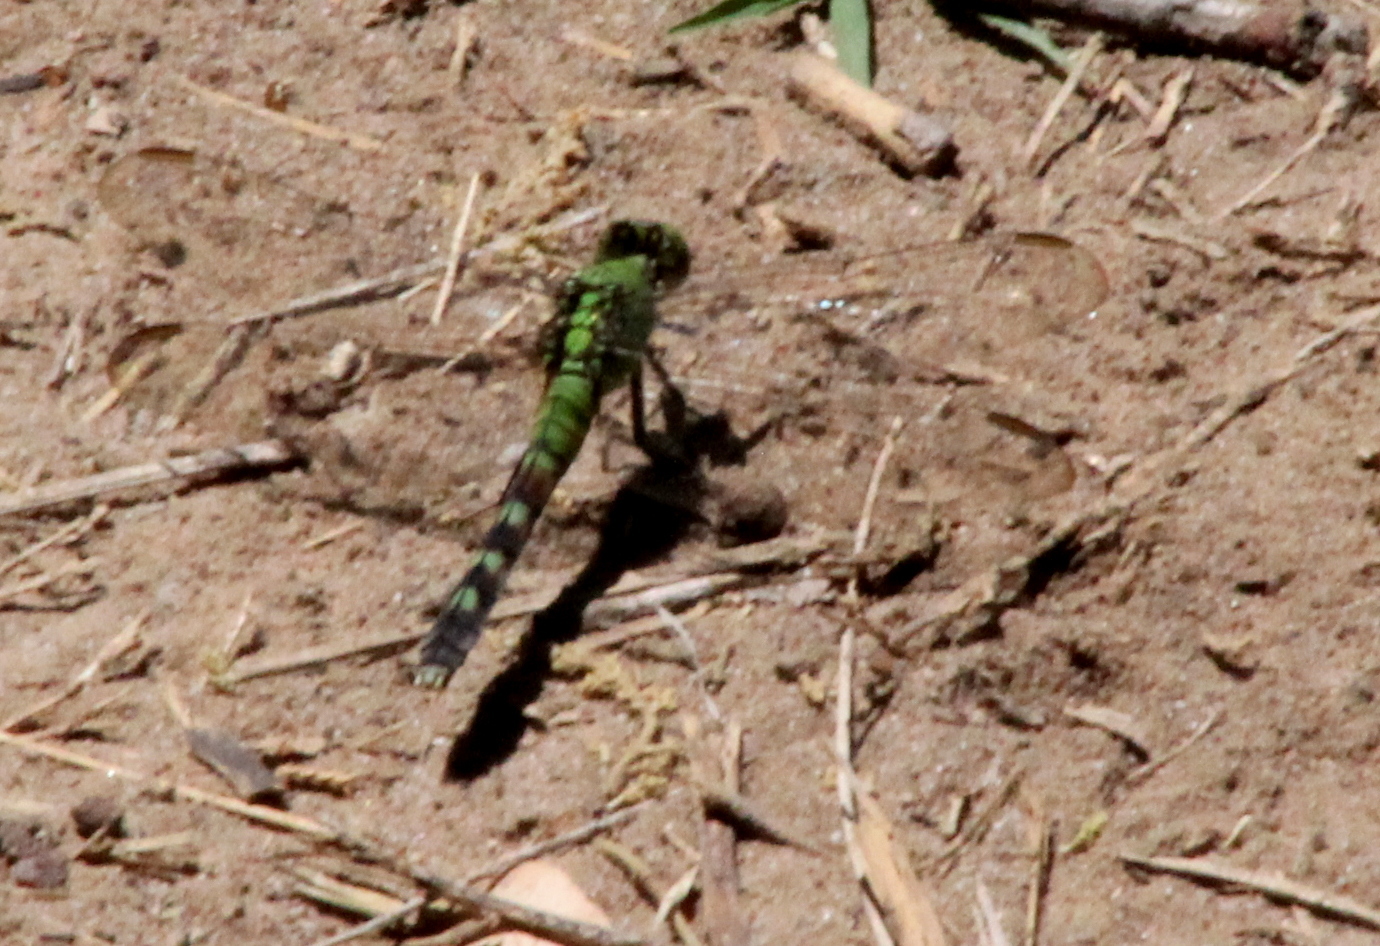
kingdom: Animalia
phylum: Arthropoda
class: Insecta
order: Odonata
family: Libellulidae
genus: Erythemis
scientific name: Erythemis simplicicollis
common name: Eastern pondhawk
